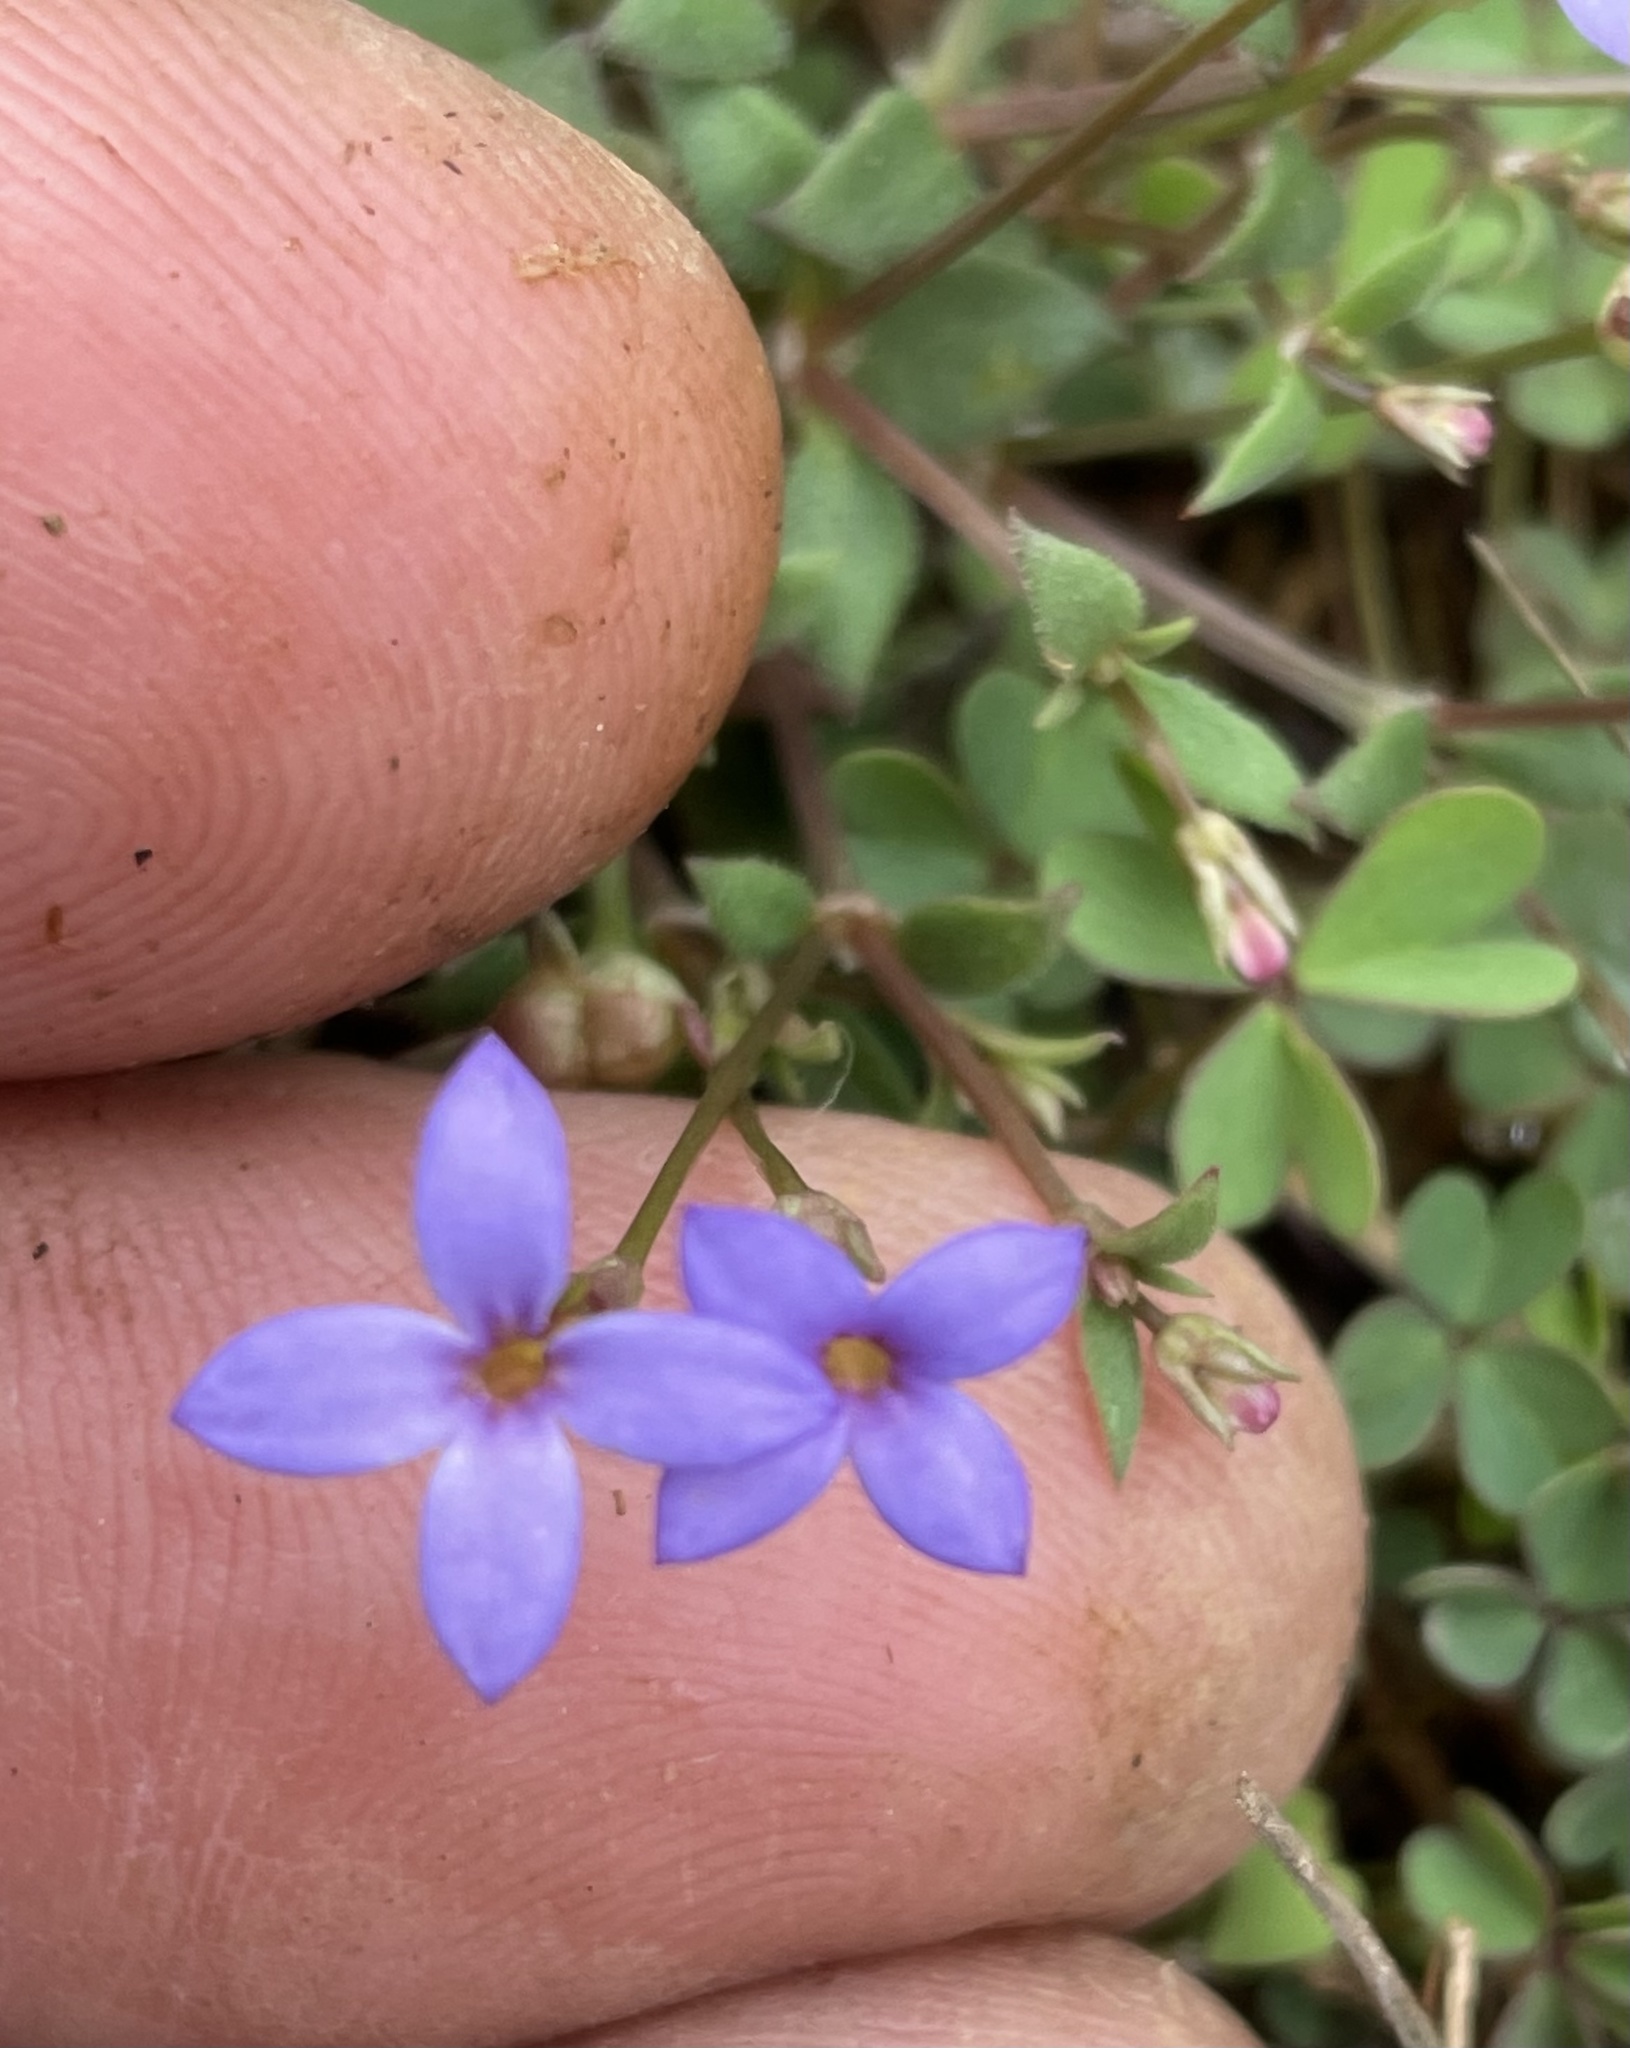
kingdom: Plantae
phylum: Tracheophyta
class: Magnoliopsida
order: Gentianales
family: Rubiaceae
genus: Houstonia
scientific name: Houstonia pusilla
